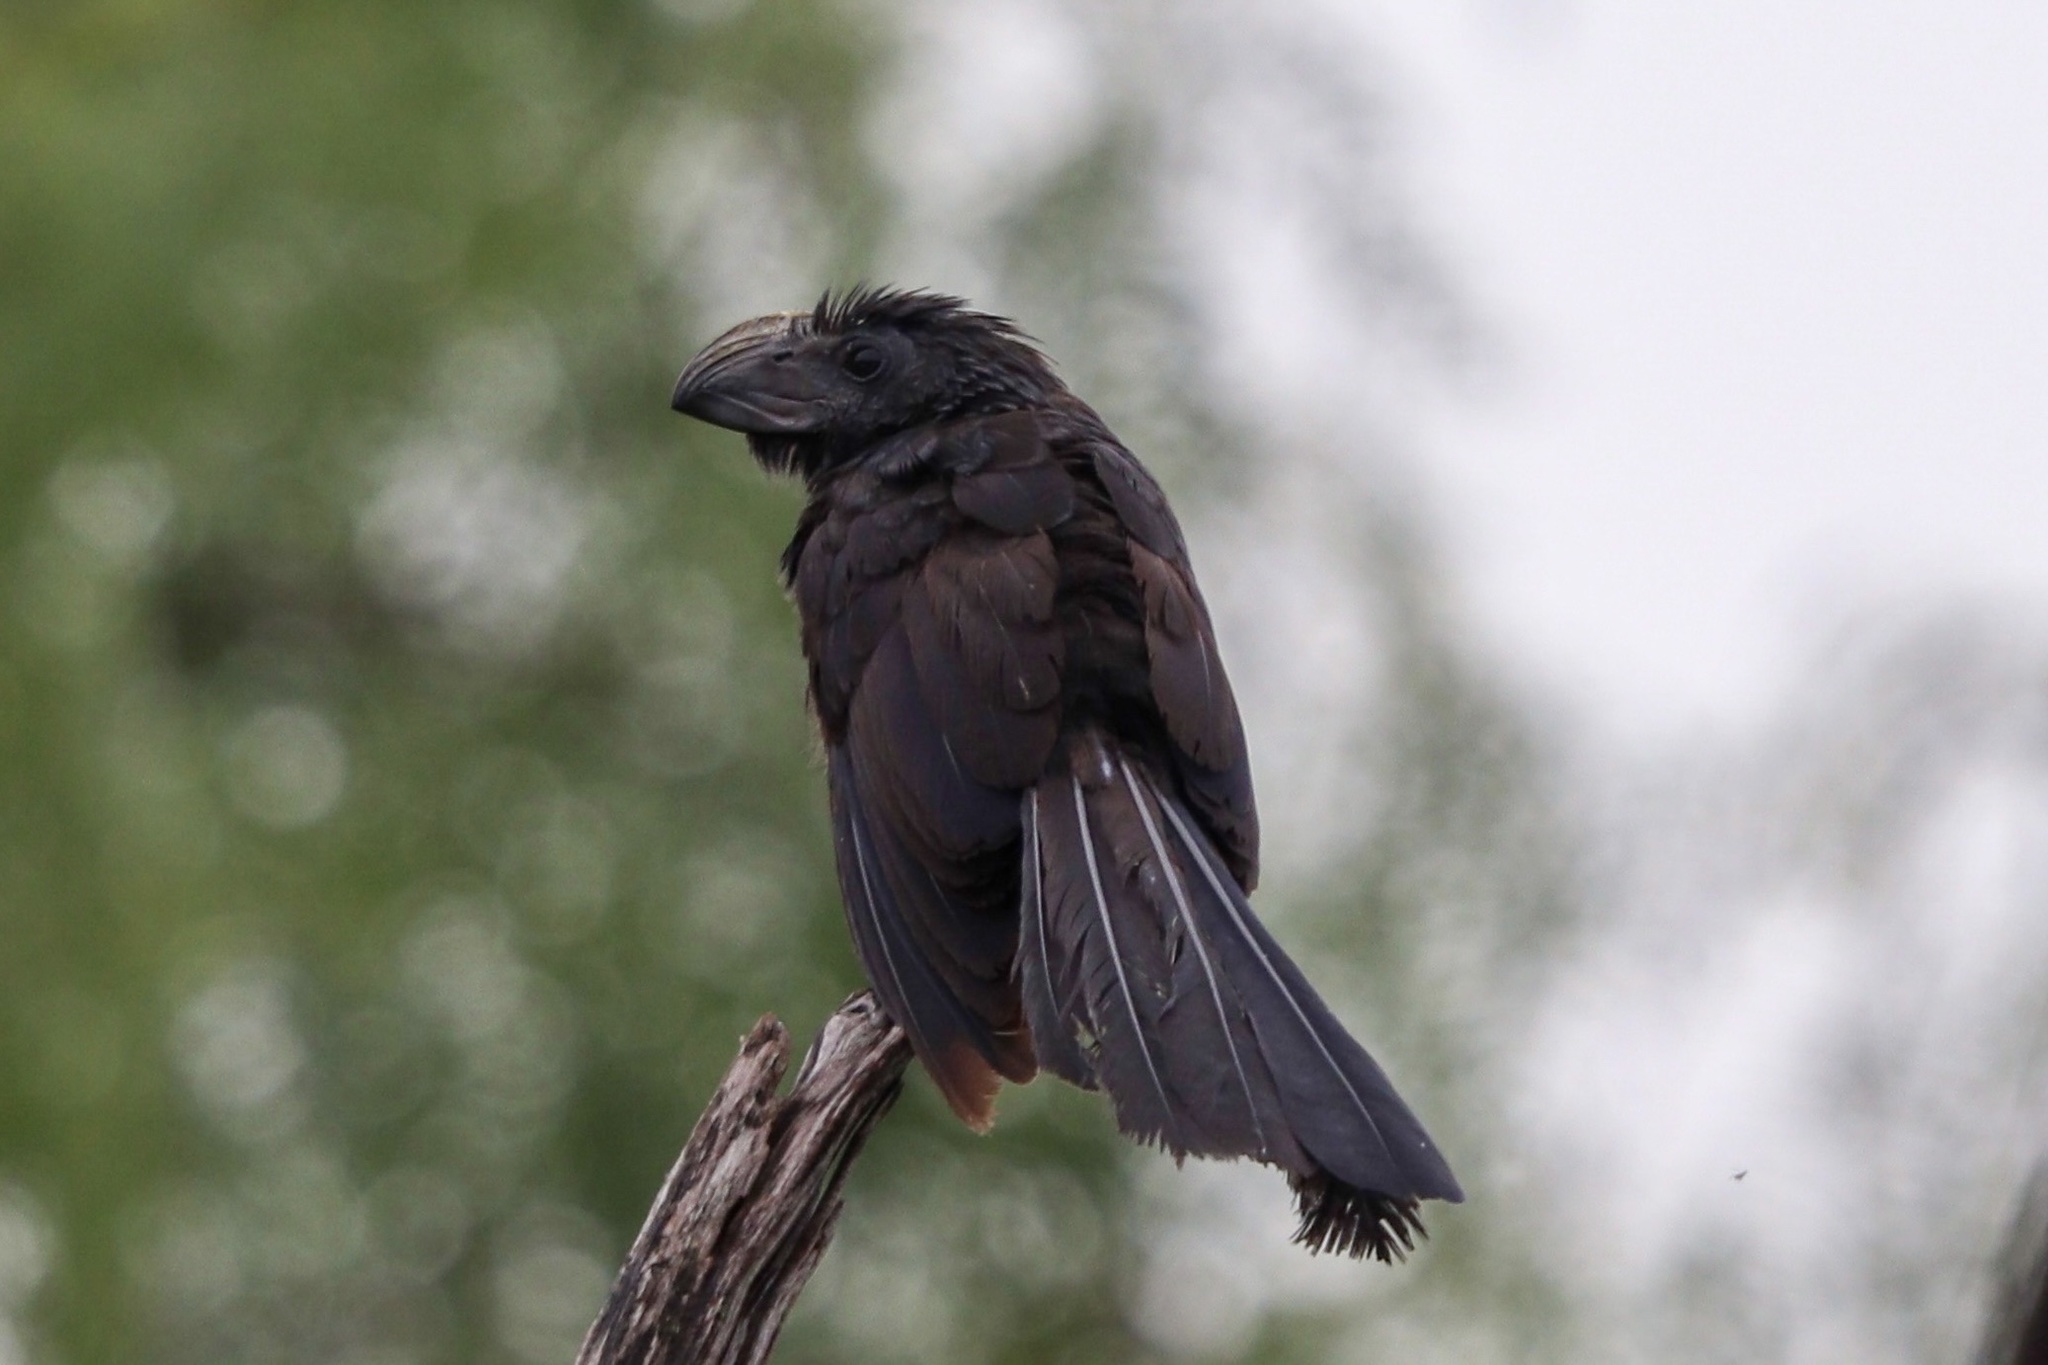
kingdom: Animalia
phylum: Chordata
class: Aves
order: Cuculiformes
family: Cuculidae
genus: Crotophaga
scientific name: Crotophaga sulcirostris
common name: Groove-billed ani
